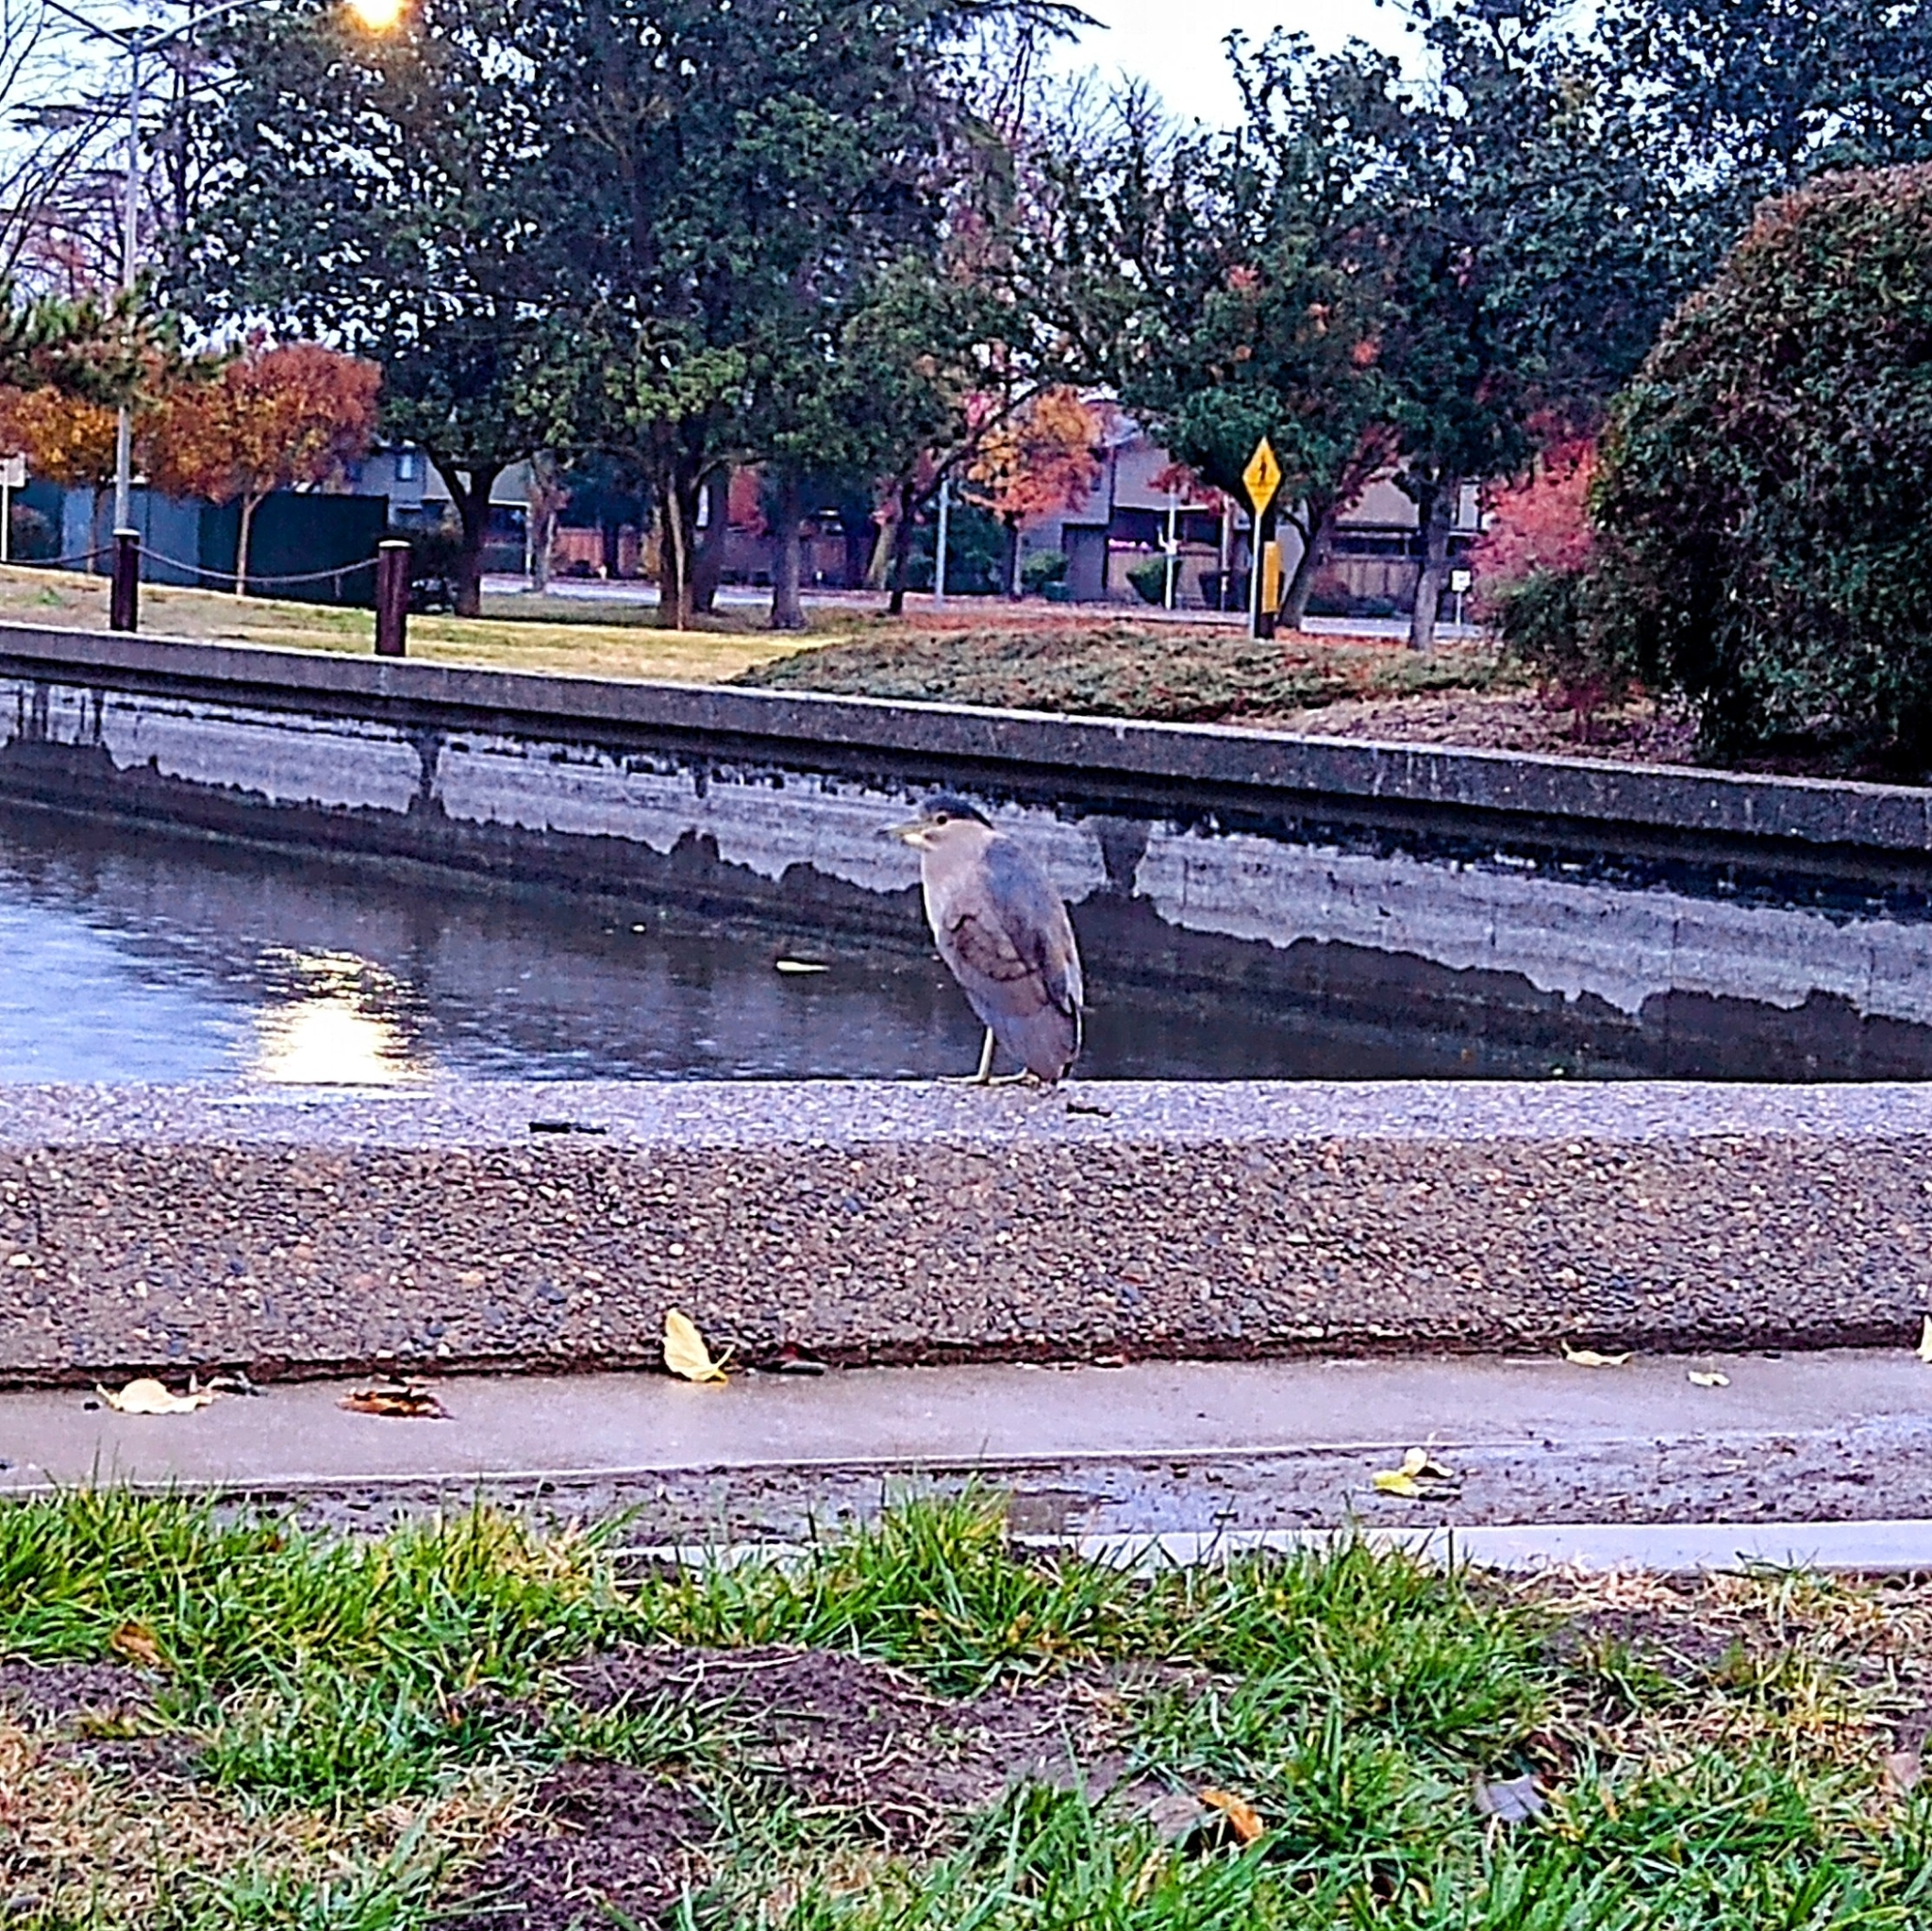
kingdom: Animalia
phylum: Chordata
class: Aves
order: Pelecaniformes
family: Ardeidae
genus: Nycticorax
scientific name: Nycticorax nycticorax
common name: Black-crowned night heron
